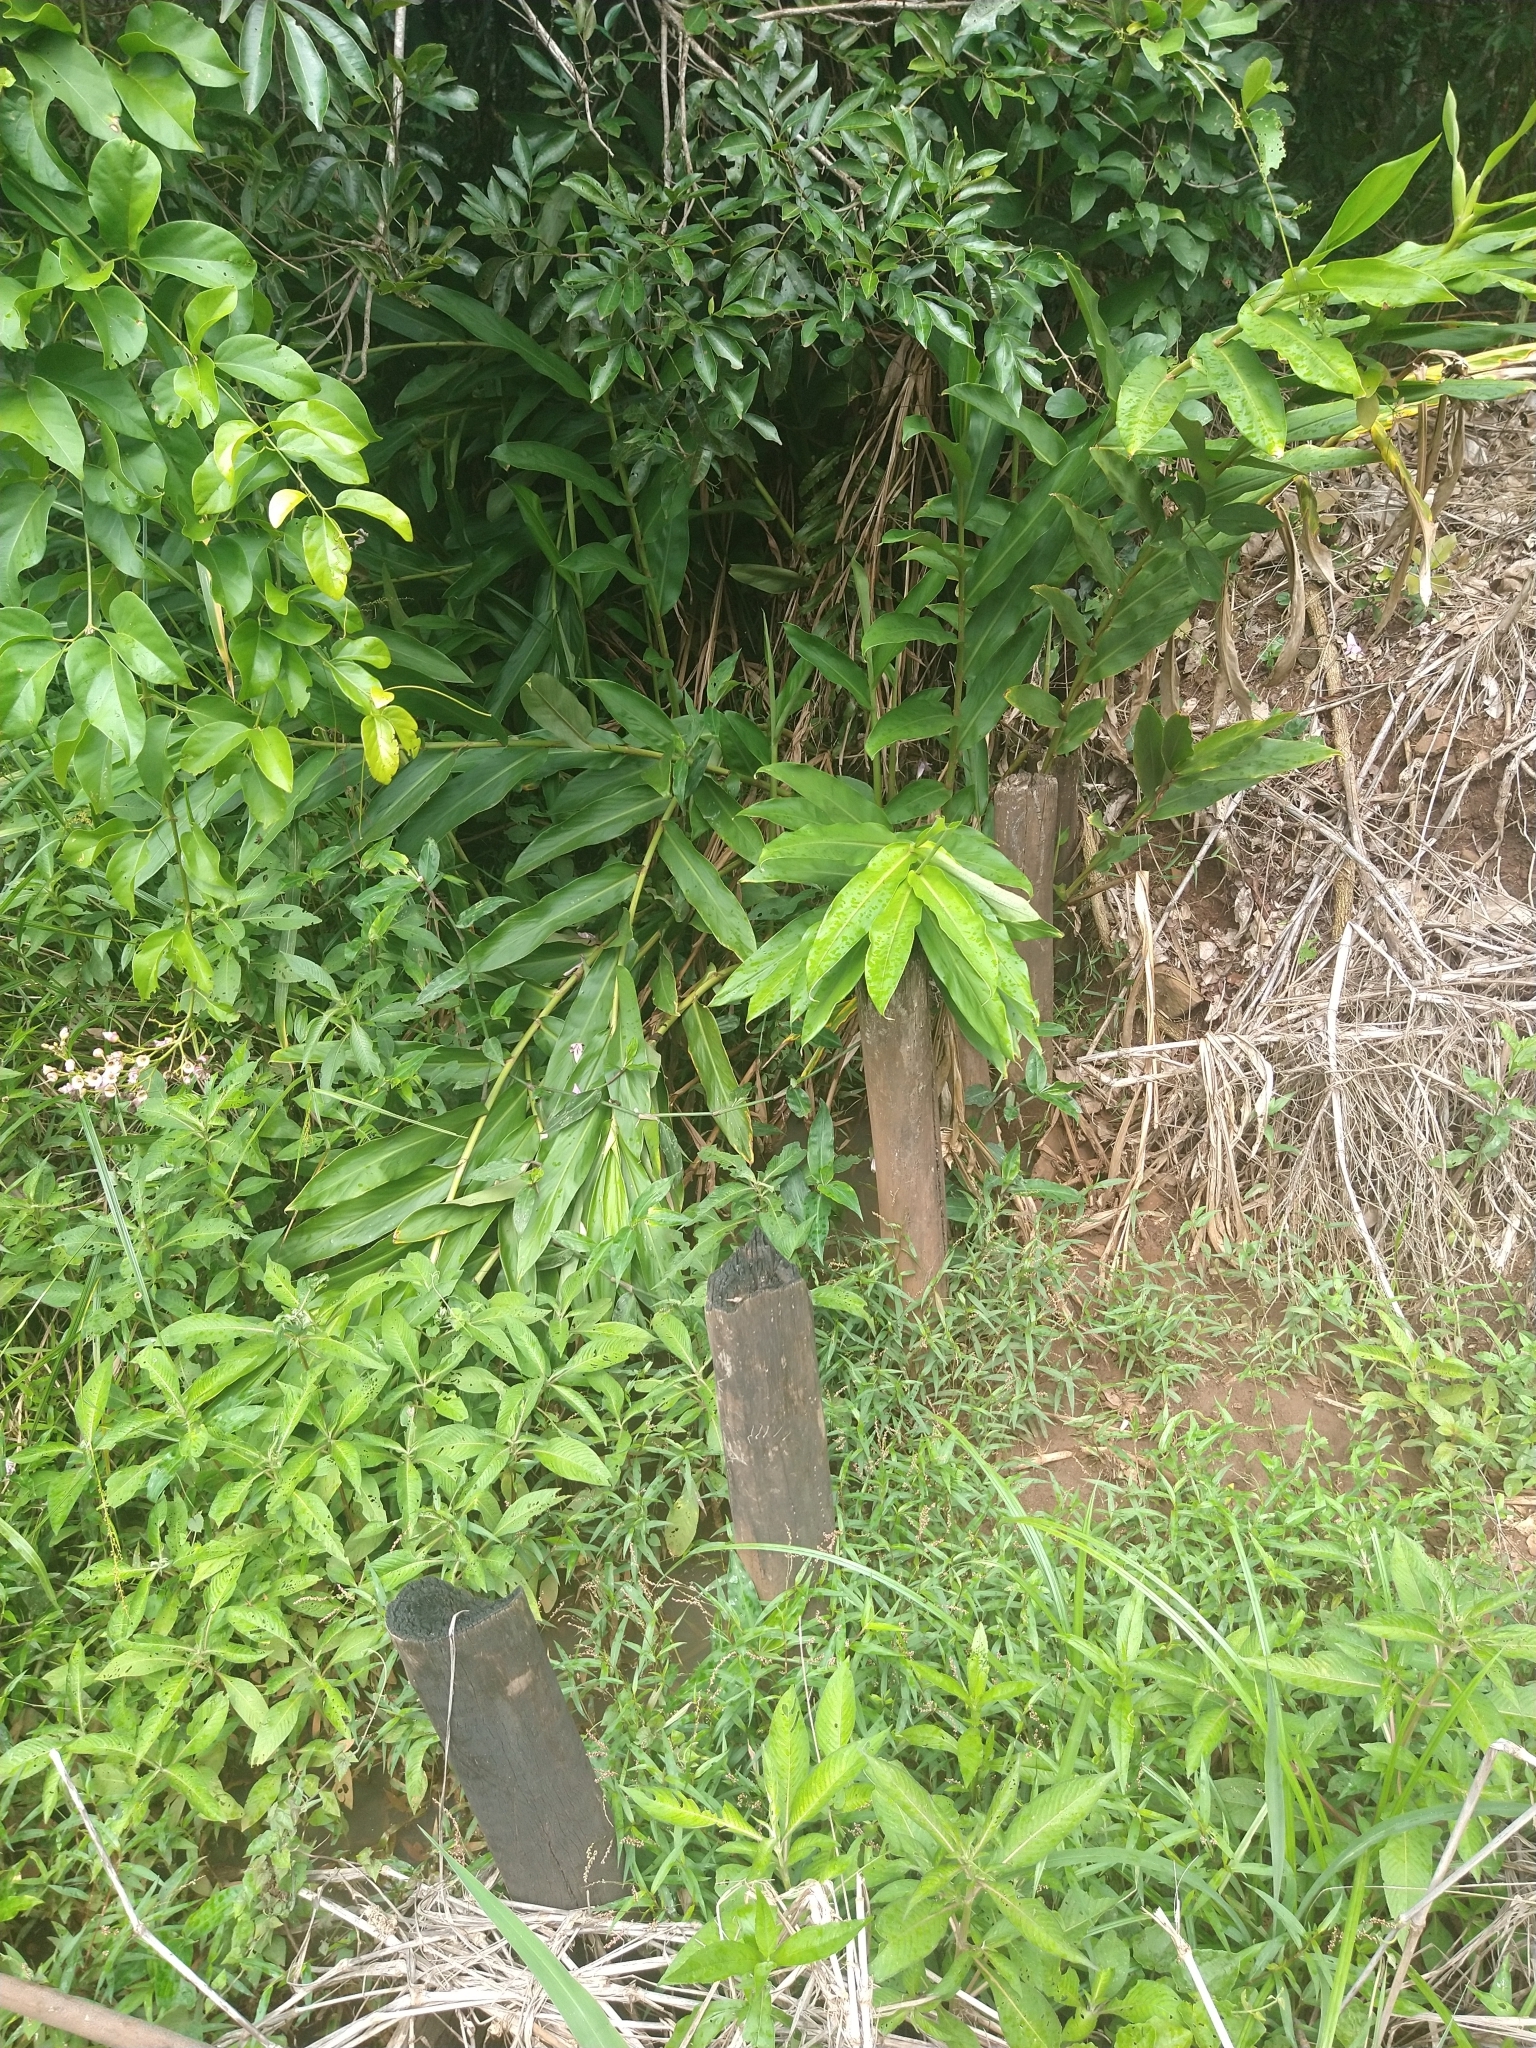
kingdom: Plantae
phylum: Tracheophyta
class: Liliopsida
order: Zingiberales
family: Zingiberaceae
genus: Hedychium
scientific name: Hedychium coronarium
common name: White garland-lily
